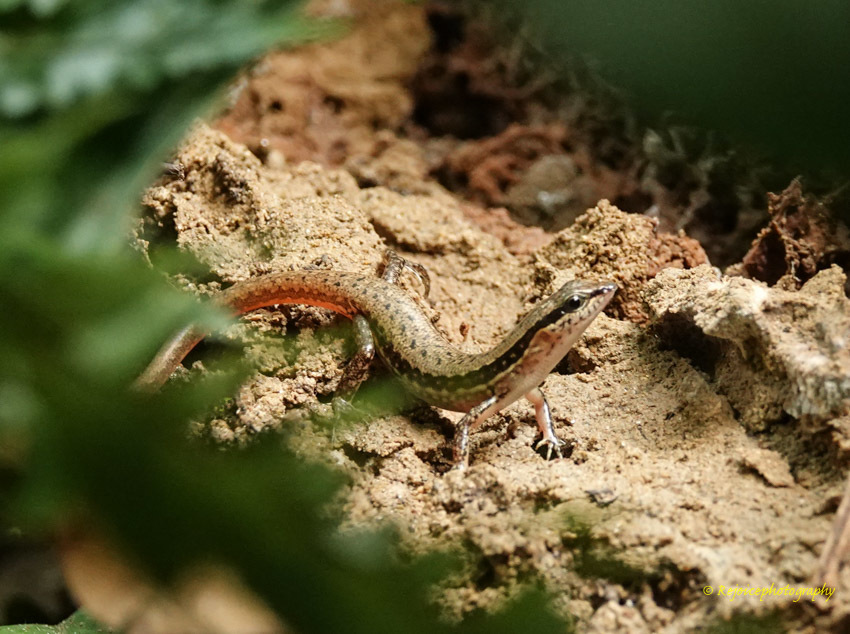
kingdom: Animalia
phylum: Chordata
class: Squamata
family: Scincidae
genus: Sphenomorphus
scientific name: Sphenomorphus maculatus
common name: Maculated forest skink
